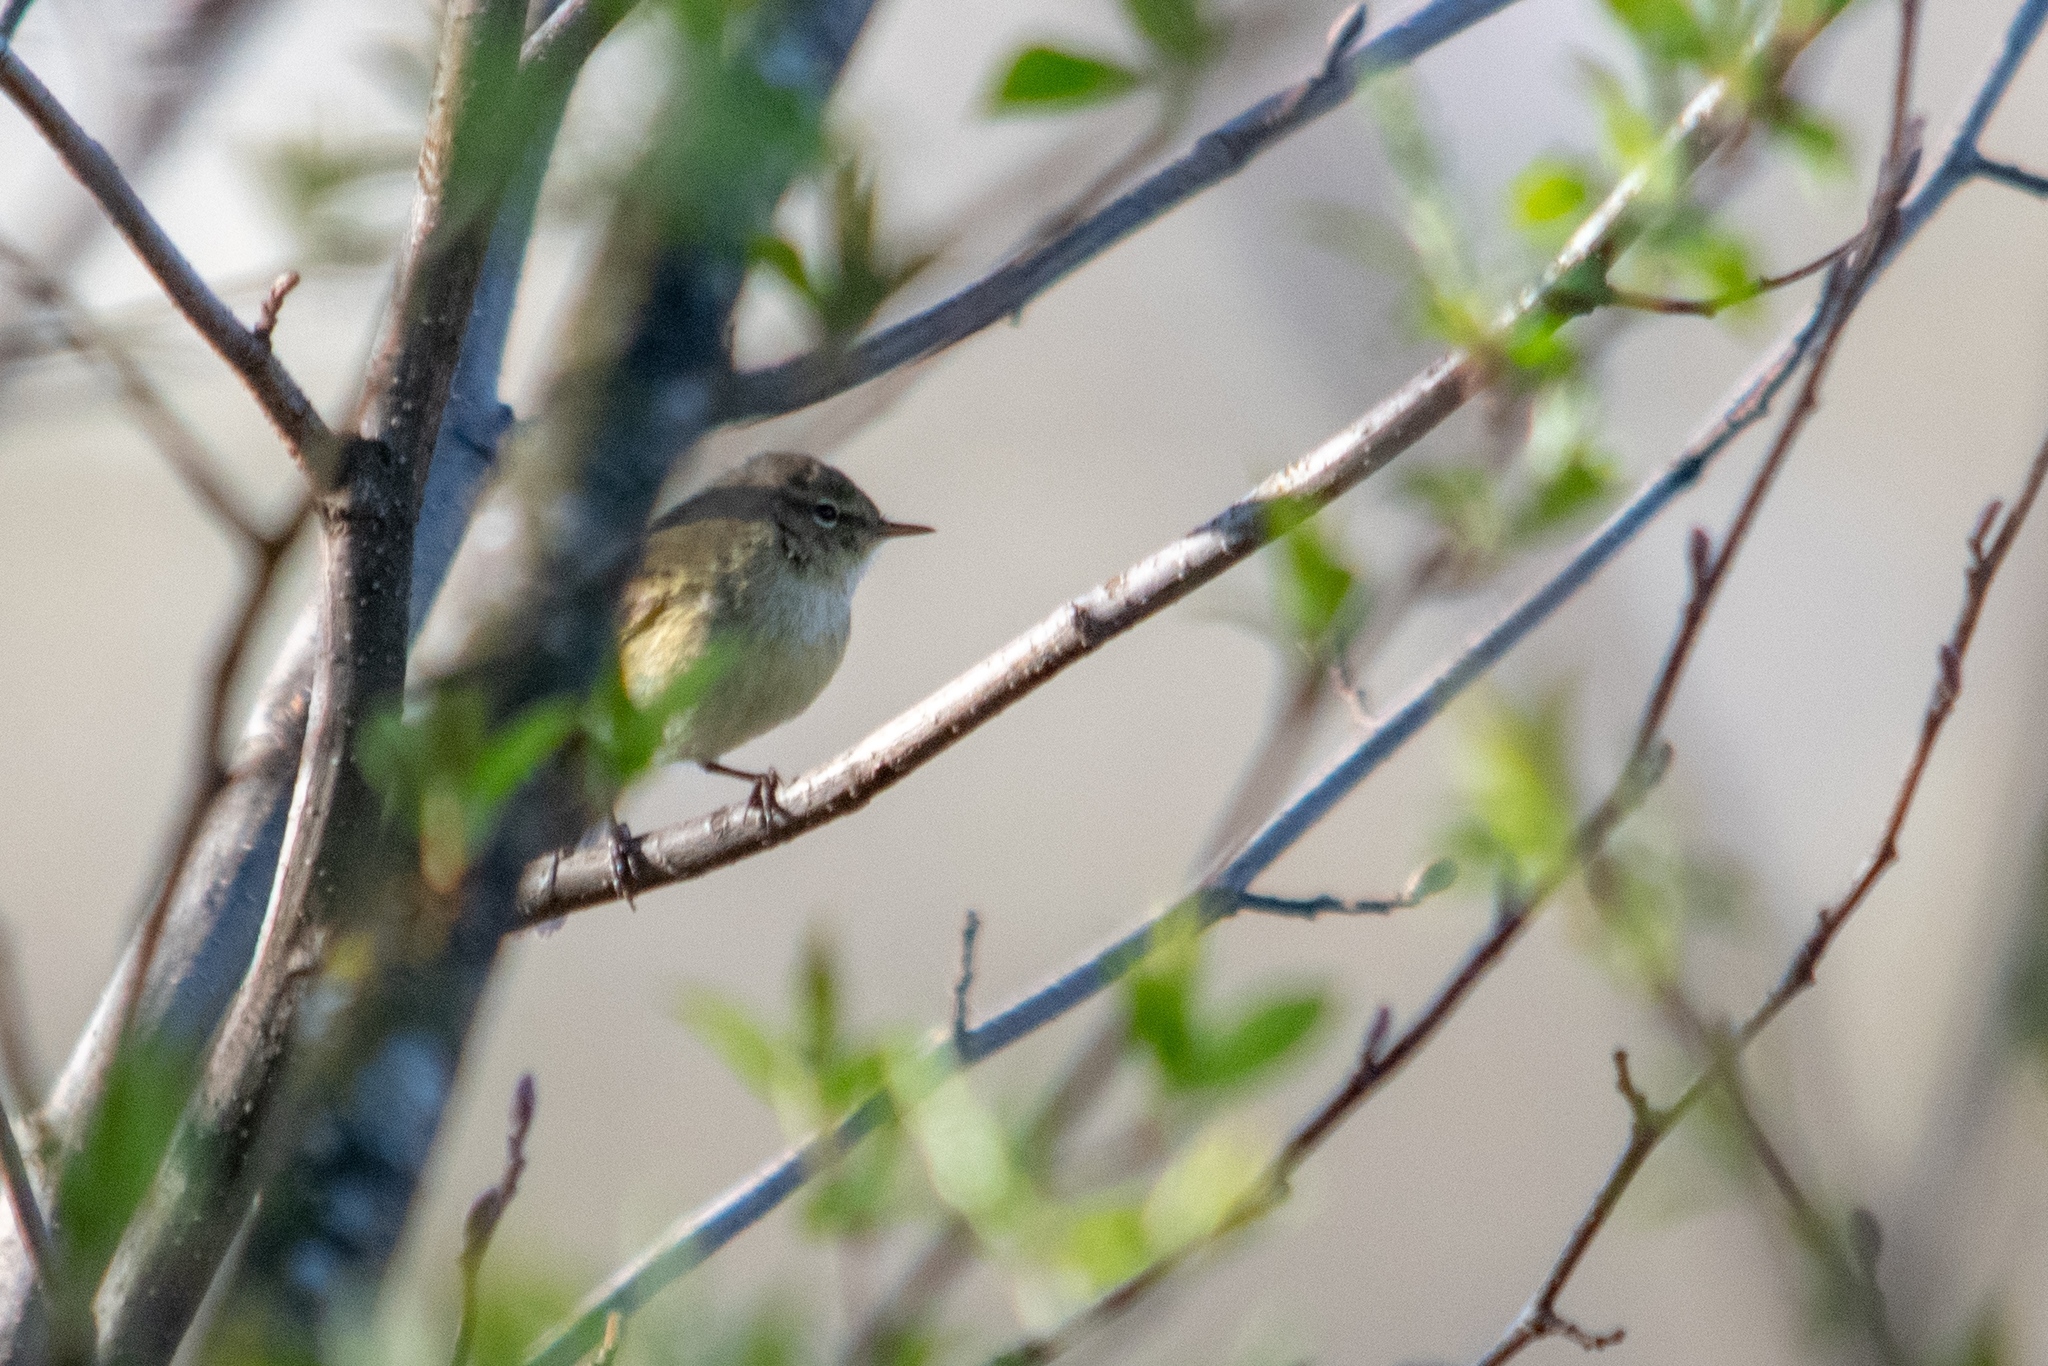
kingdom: Animalia
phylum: Chordata
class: Aves
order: Passeriformes
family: Phylloscopidae
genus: Phylloscopus
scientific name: Phylloscopus collybita
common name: Common chiffchaff
